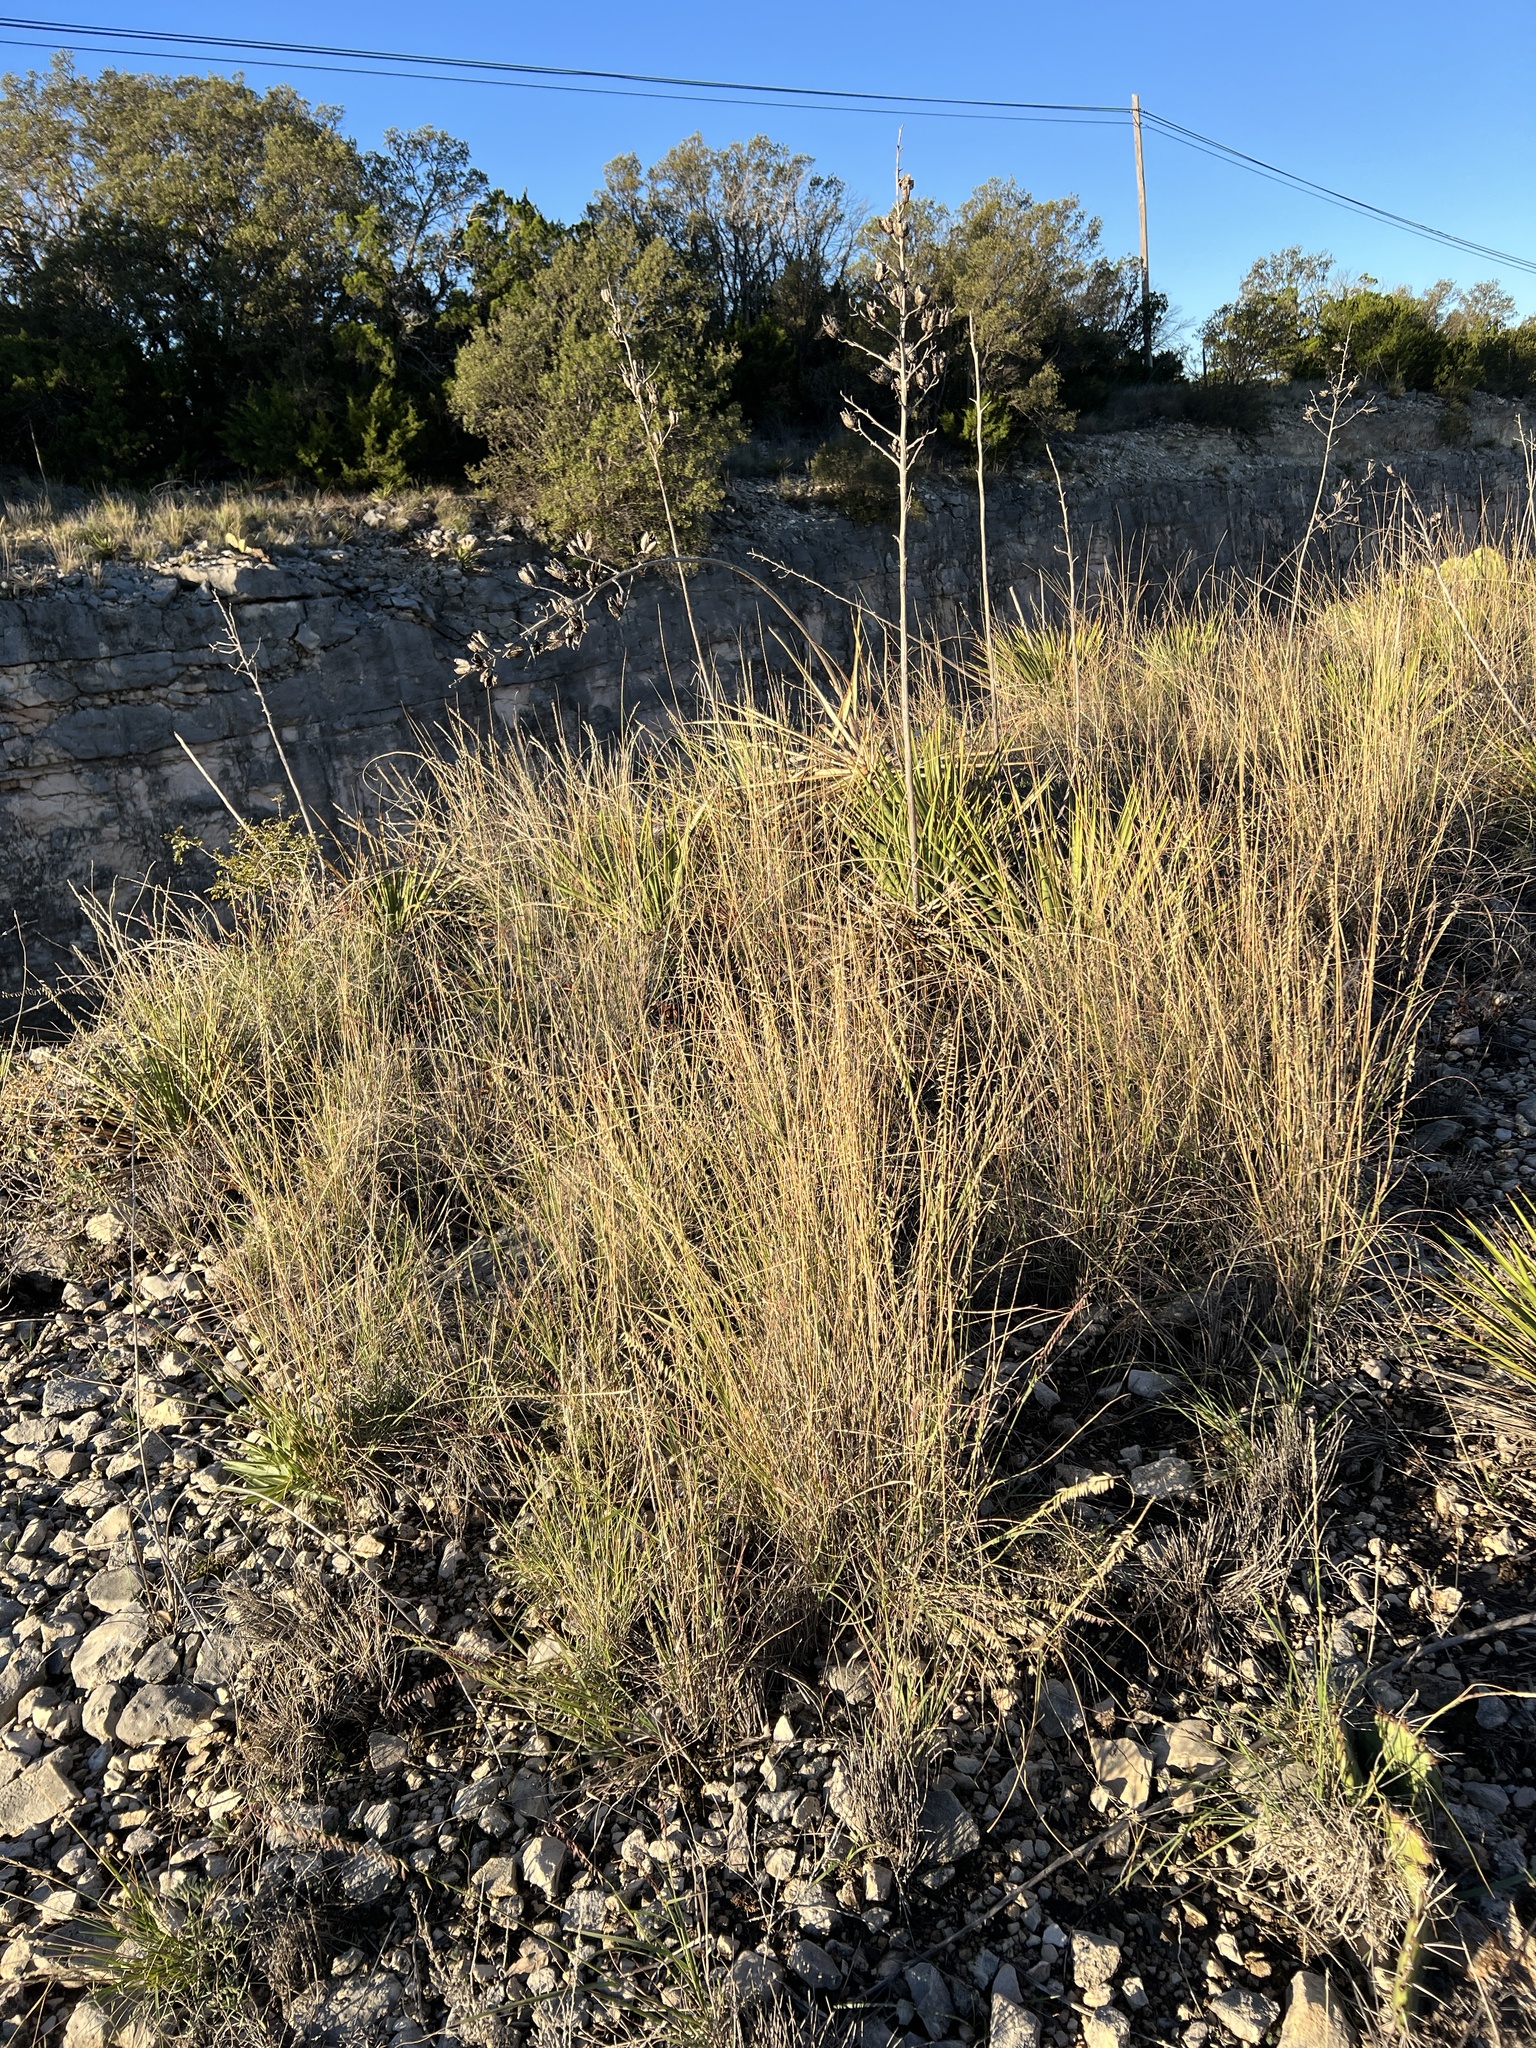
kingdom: Plantae
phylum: Tracheophyta
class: Liliopsida
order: Poales
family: Poaceae
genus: Bouteloua
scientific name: Bouteloua curtipendula
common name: Side-oats grama
